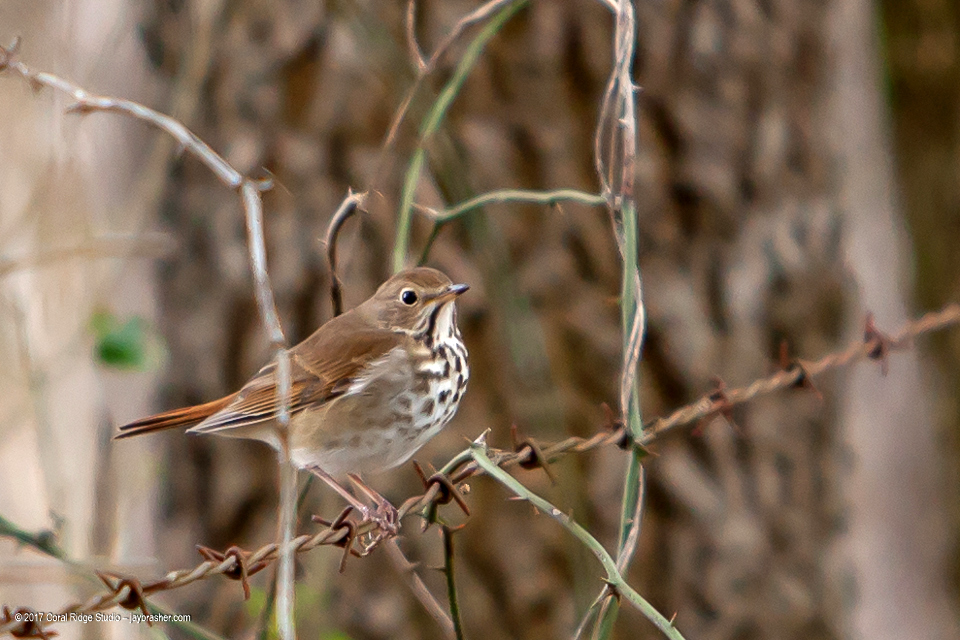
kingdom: Animalia
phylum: Chordata
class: Aves
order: Passeriformes
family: Turdidae
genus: Catharus
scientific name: Catharus guttatus
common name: Hermit thrush
